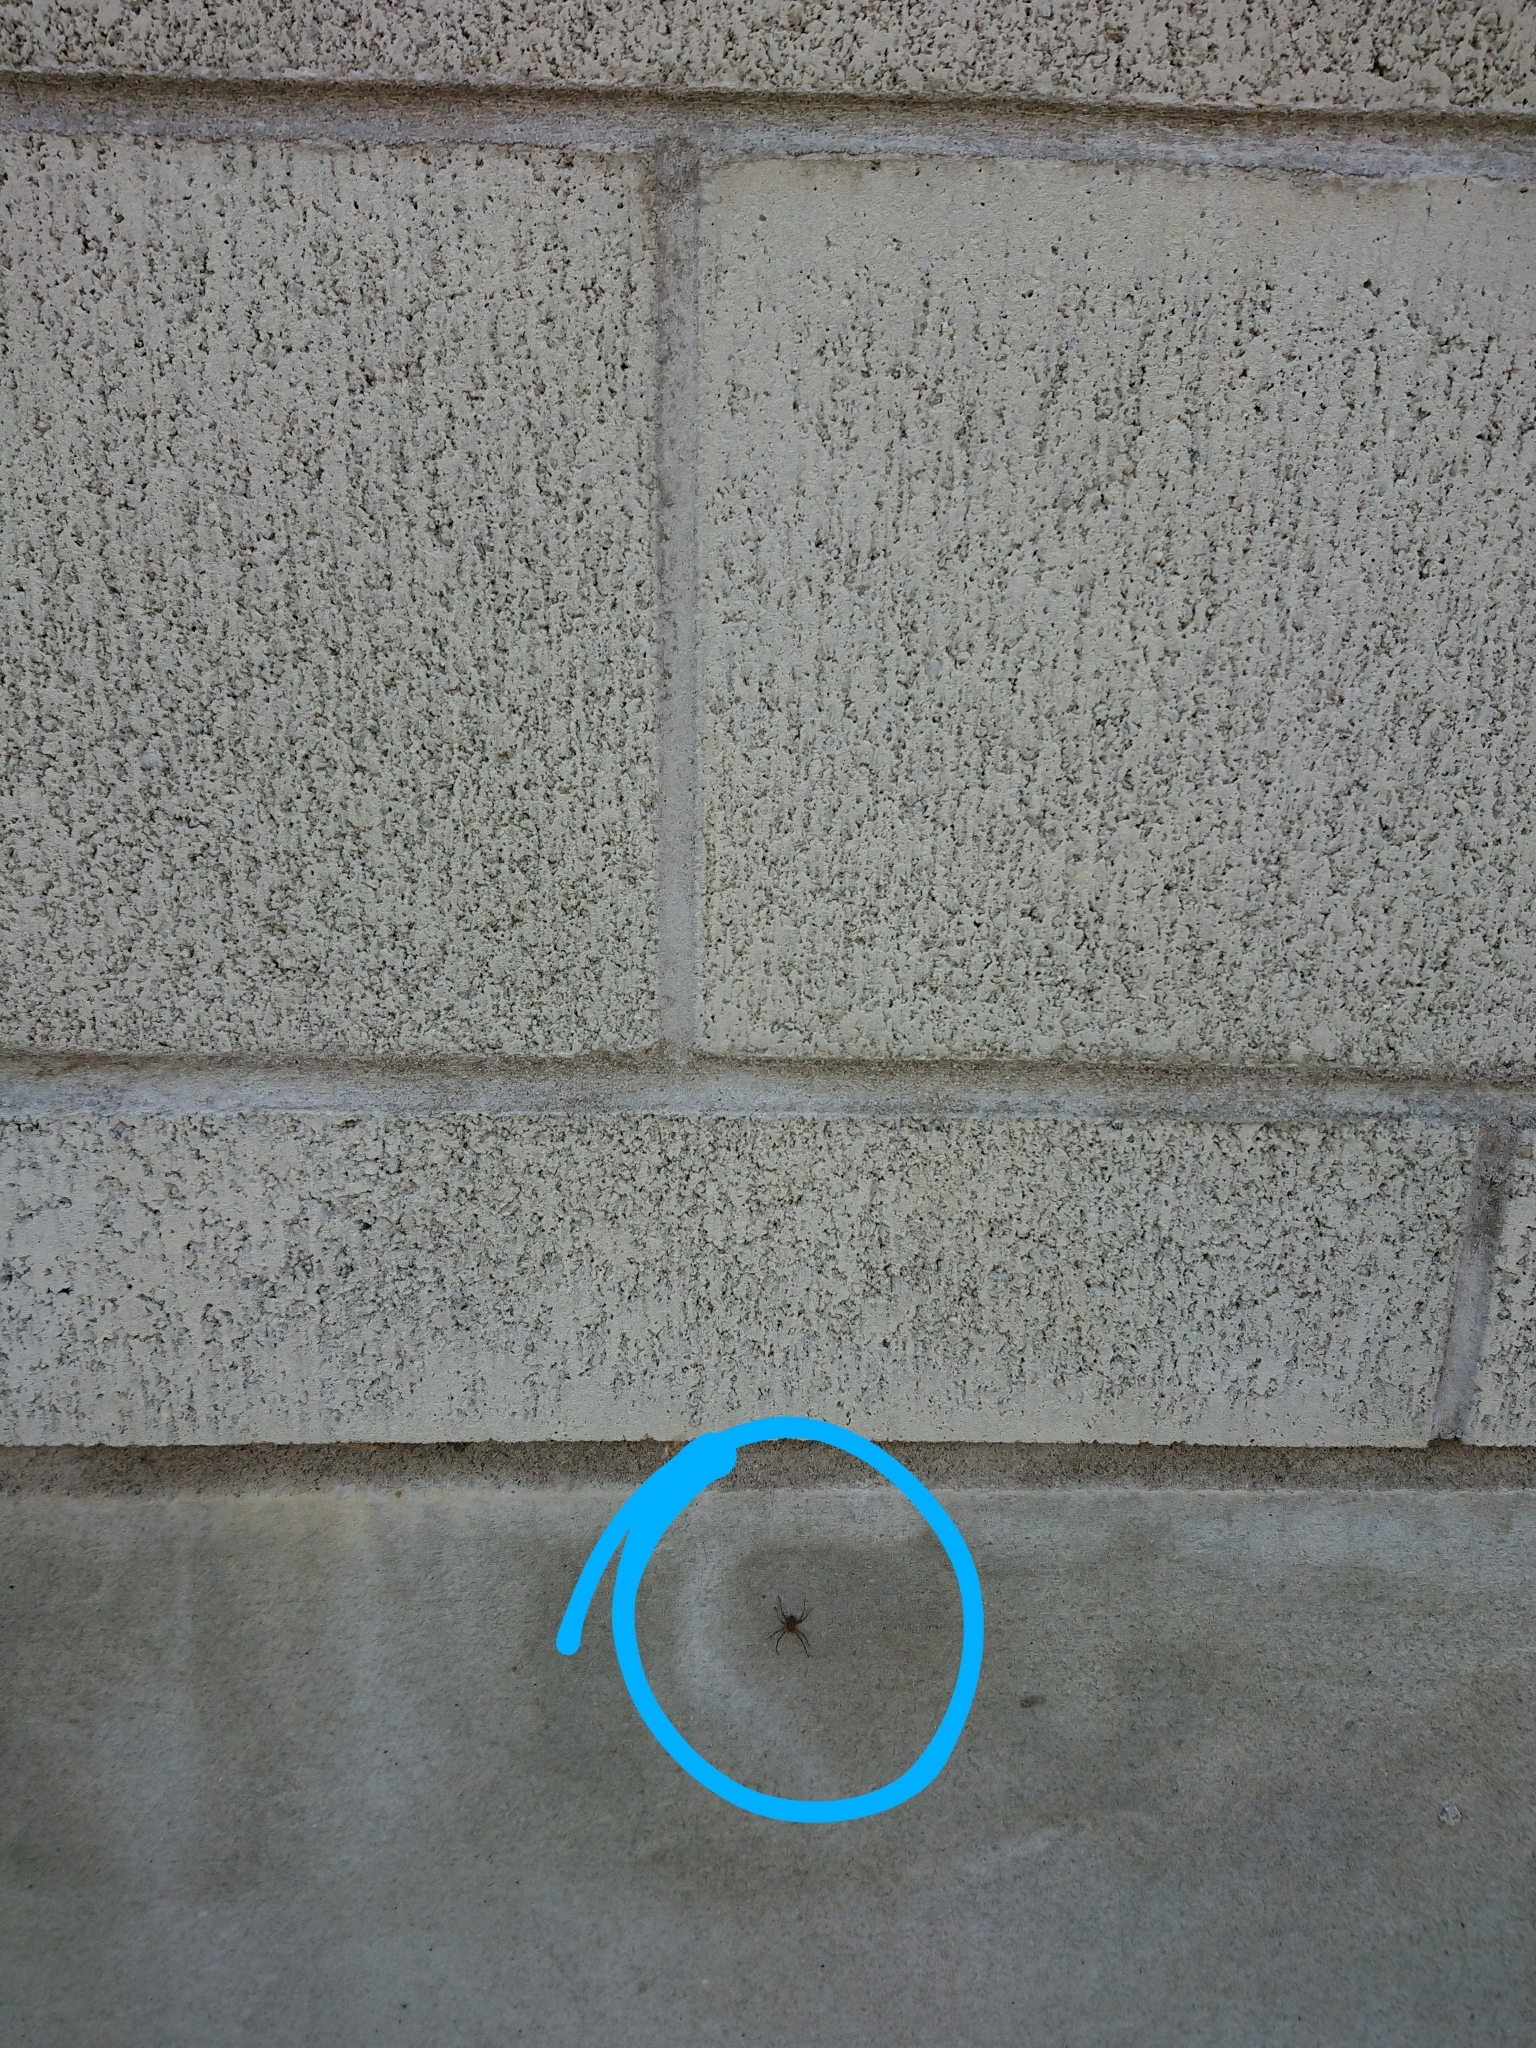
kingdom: Animalia
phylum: Arthropoda
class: Arachnida
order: Araneae
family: Stiphidiidae
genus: Stiphidion
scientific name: Stiphidion facetum
